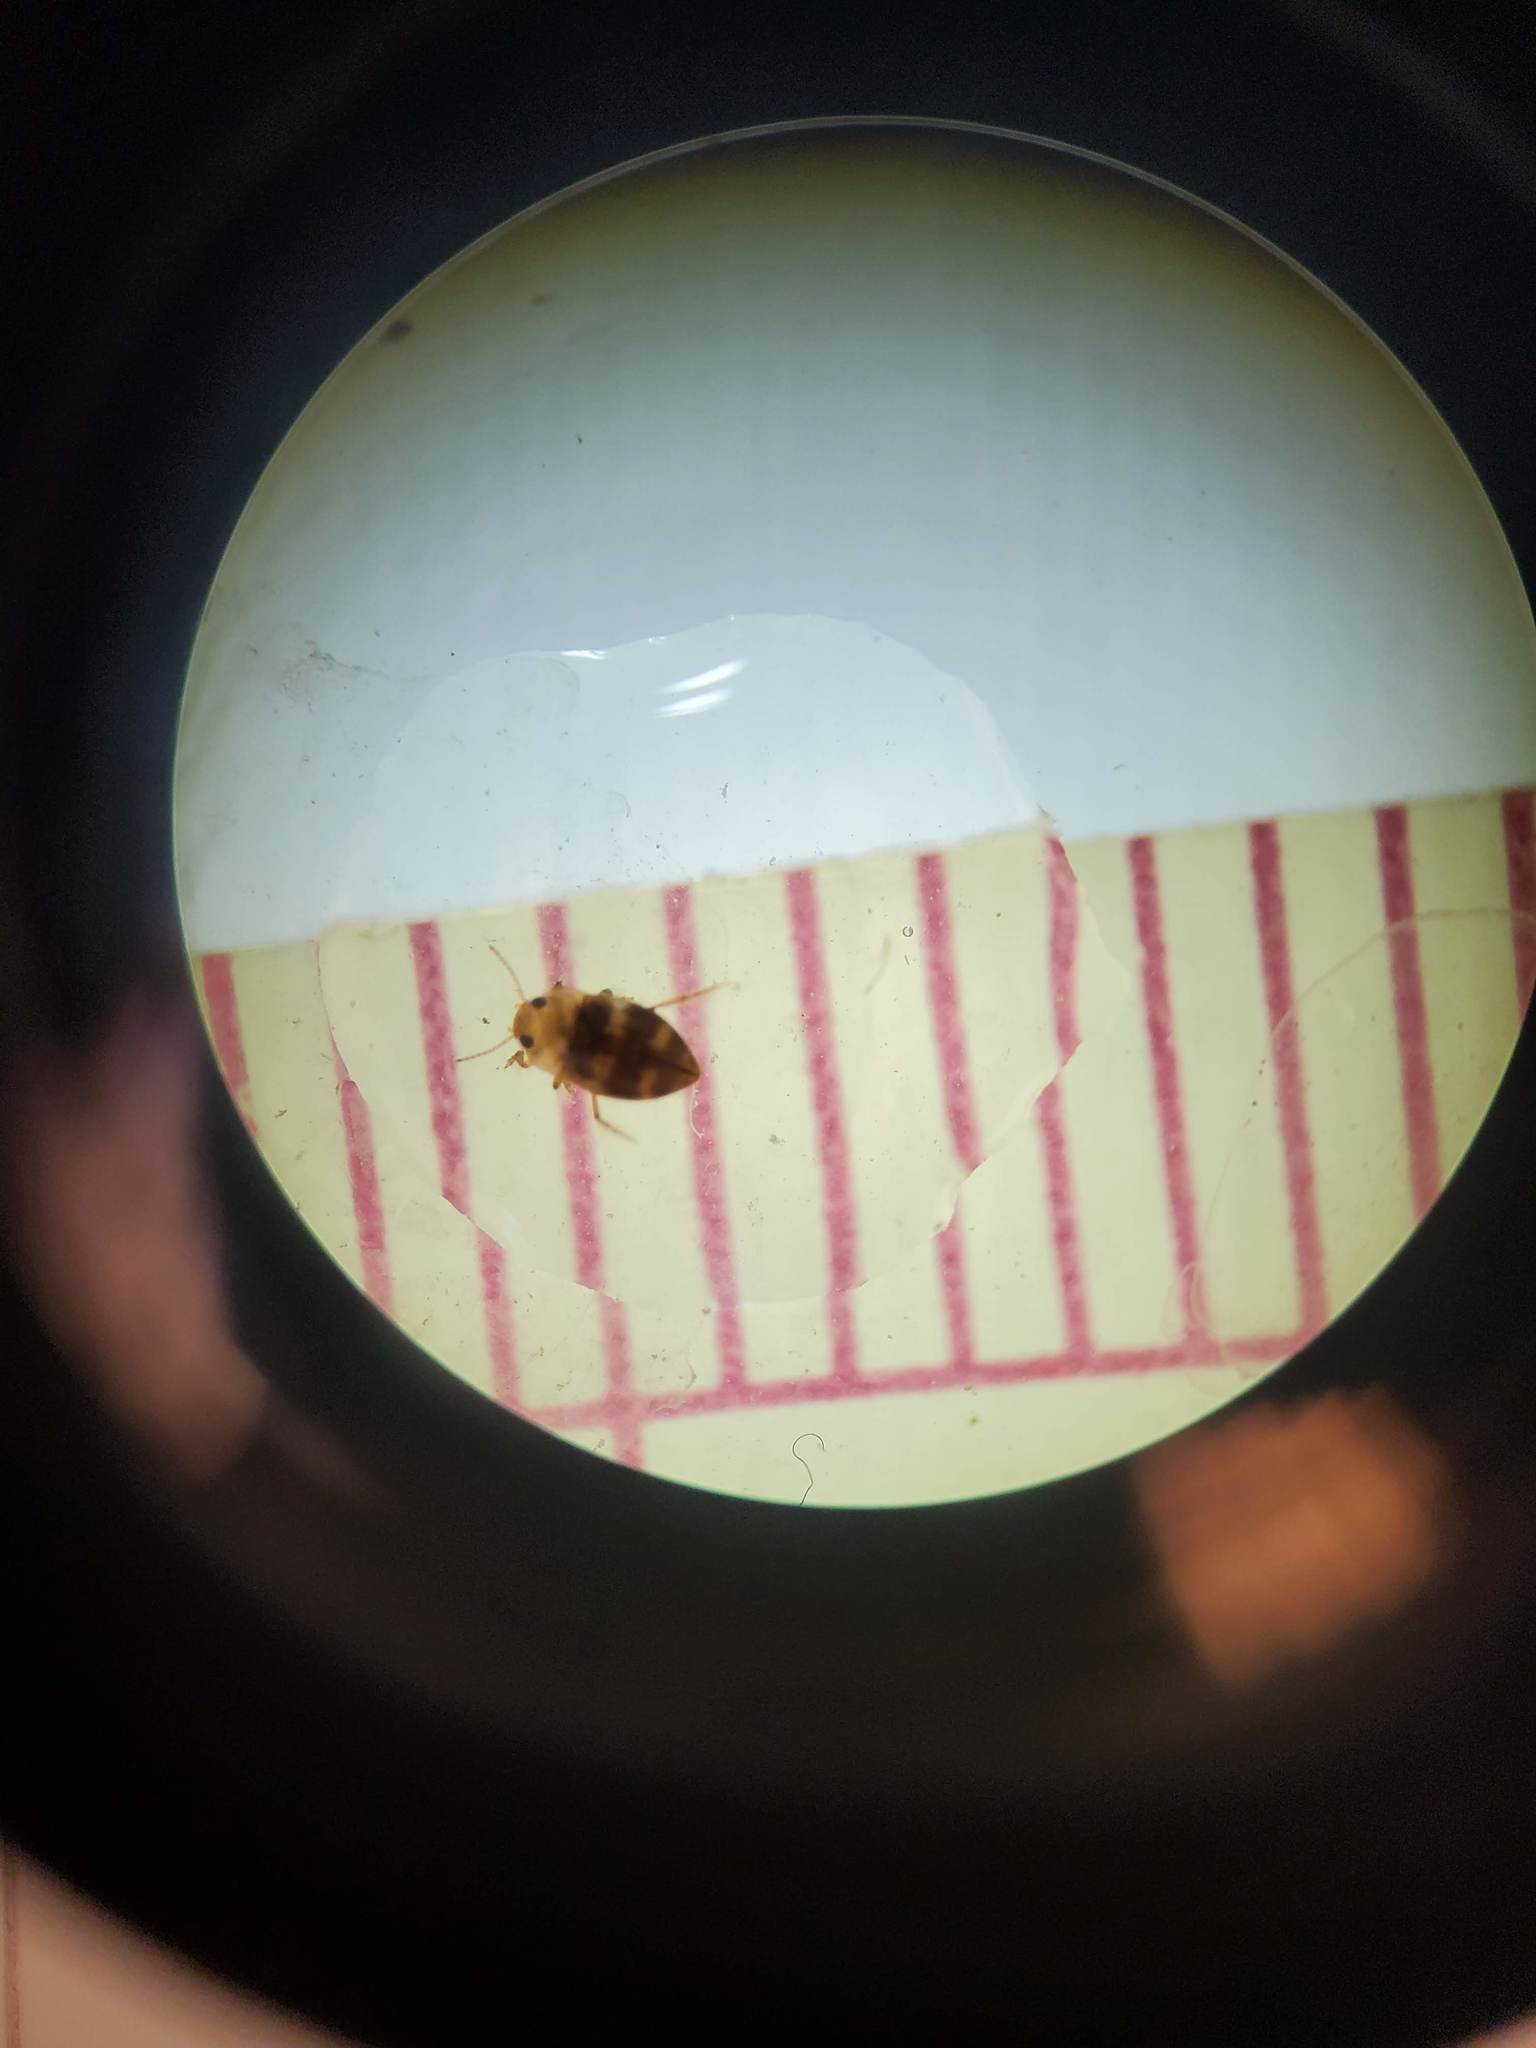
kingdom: Animalia
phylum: Arthropoda
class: Insecta
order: Coleoptera
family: Dytiscidae
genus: Liodessus
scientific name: Liodessus flavicollis
